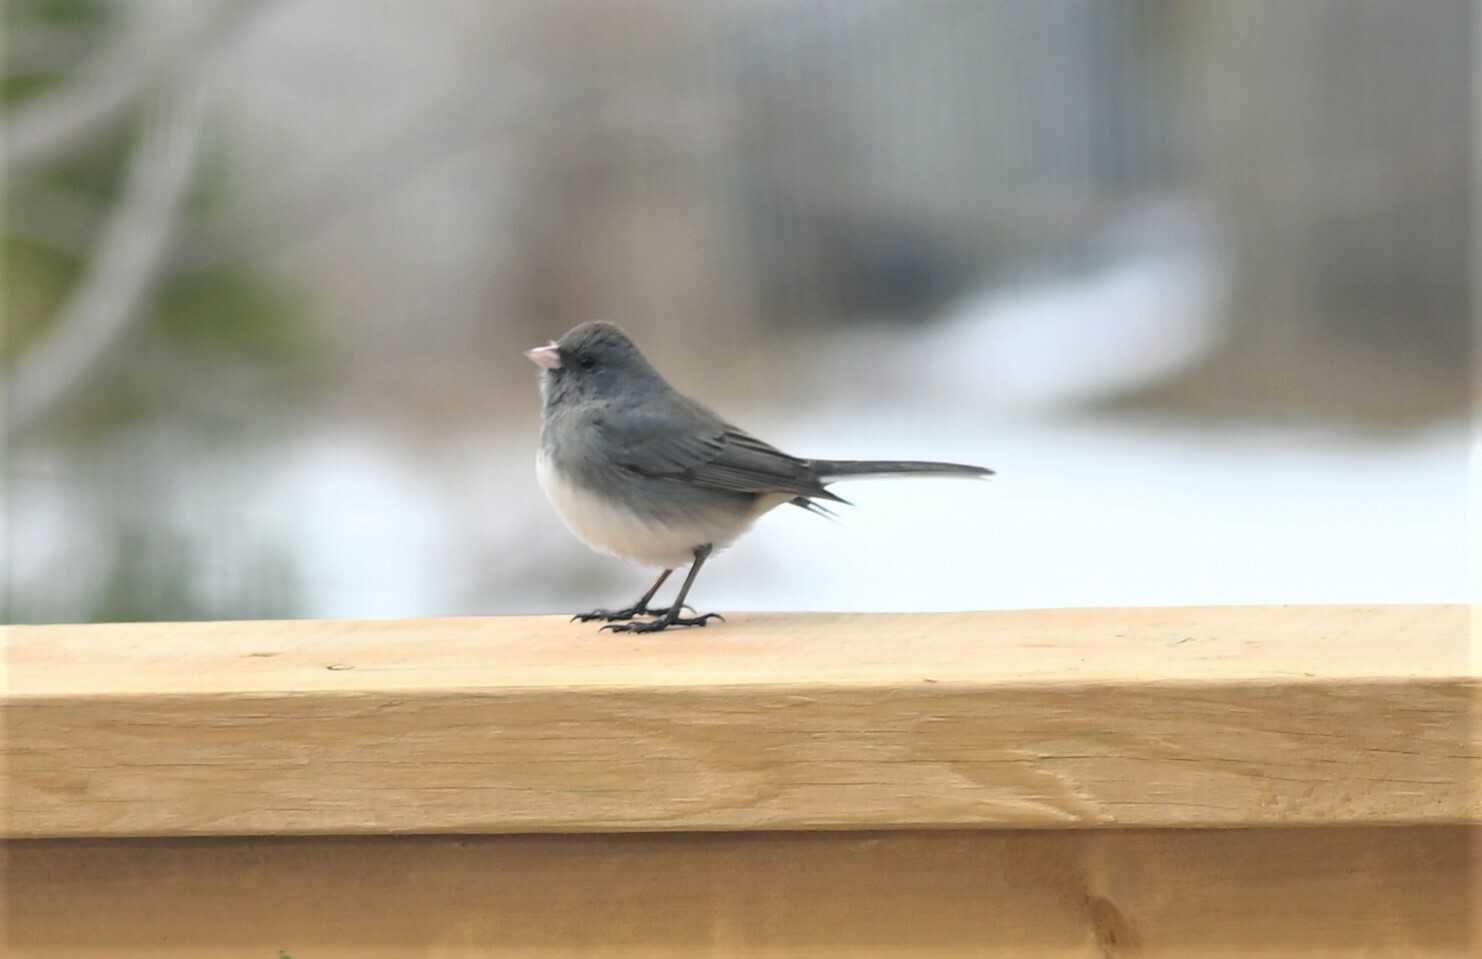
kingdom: Animalia
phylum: Chordata
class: Aves
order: Passeriformes
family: Passerellidae
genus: Junco
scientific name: Junco hyemalis
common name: Dark-eyed junco
